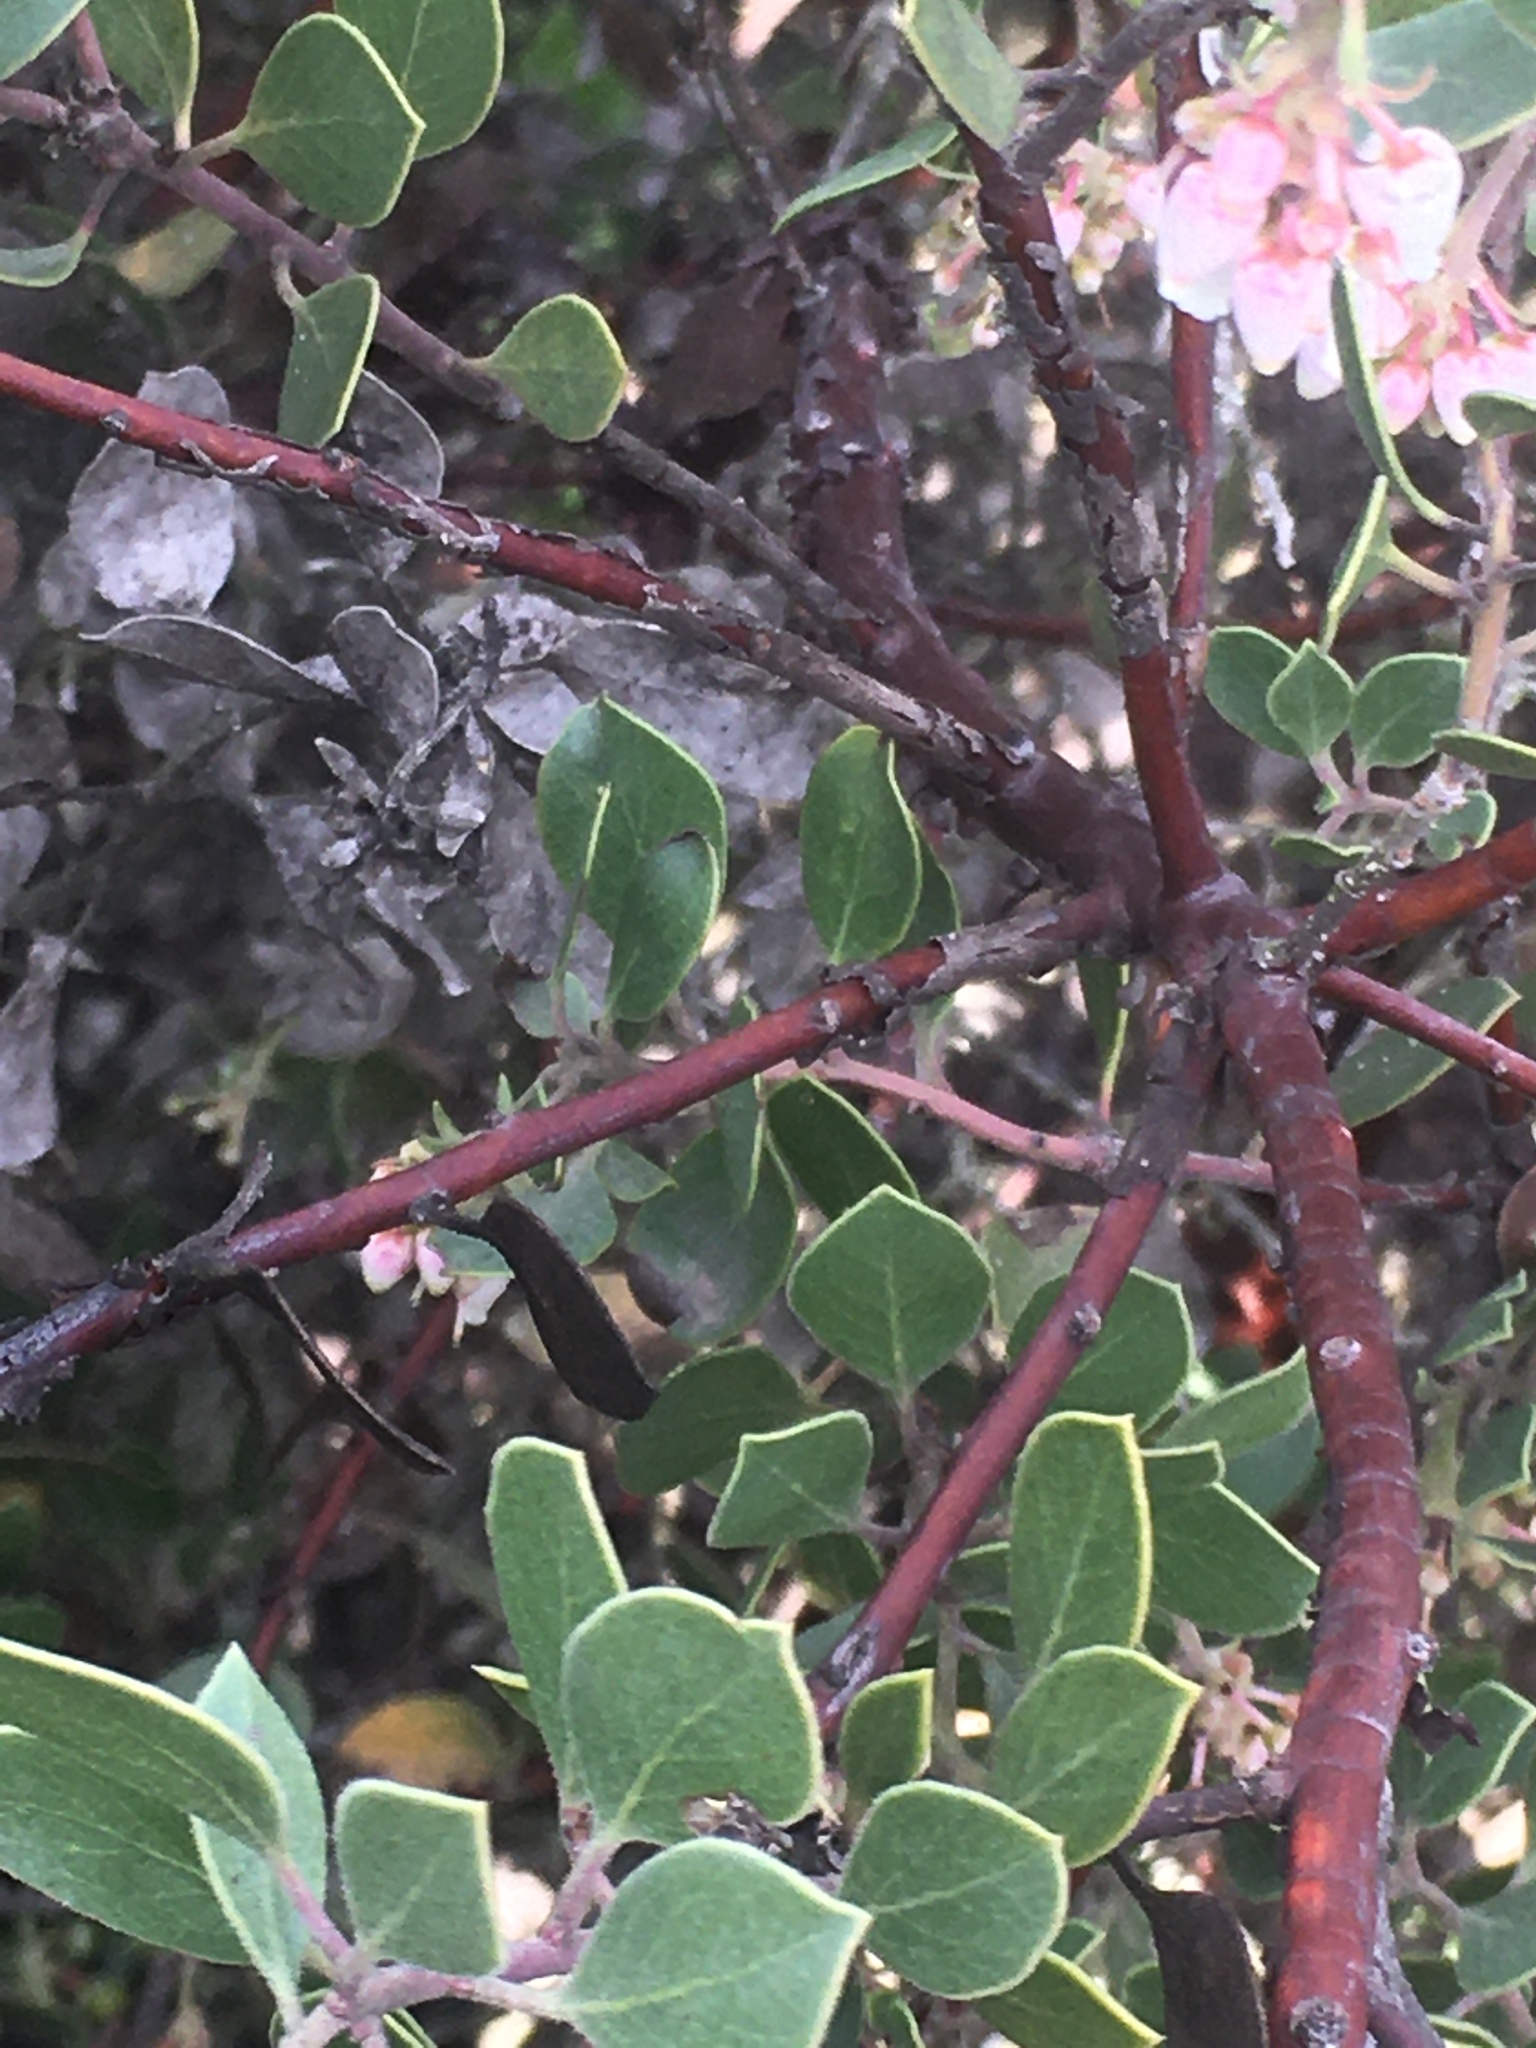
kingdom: Plantae
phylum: Tracheophyta
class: Magnoliopsida
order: Ericales
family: Ericaceae
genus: Arctostaphylos
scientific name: Arctostaphylos rudis
